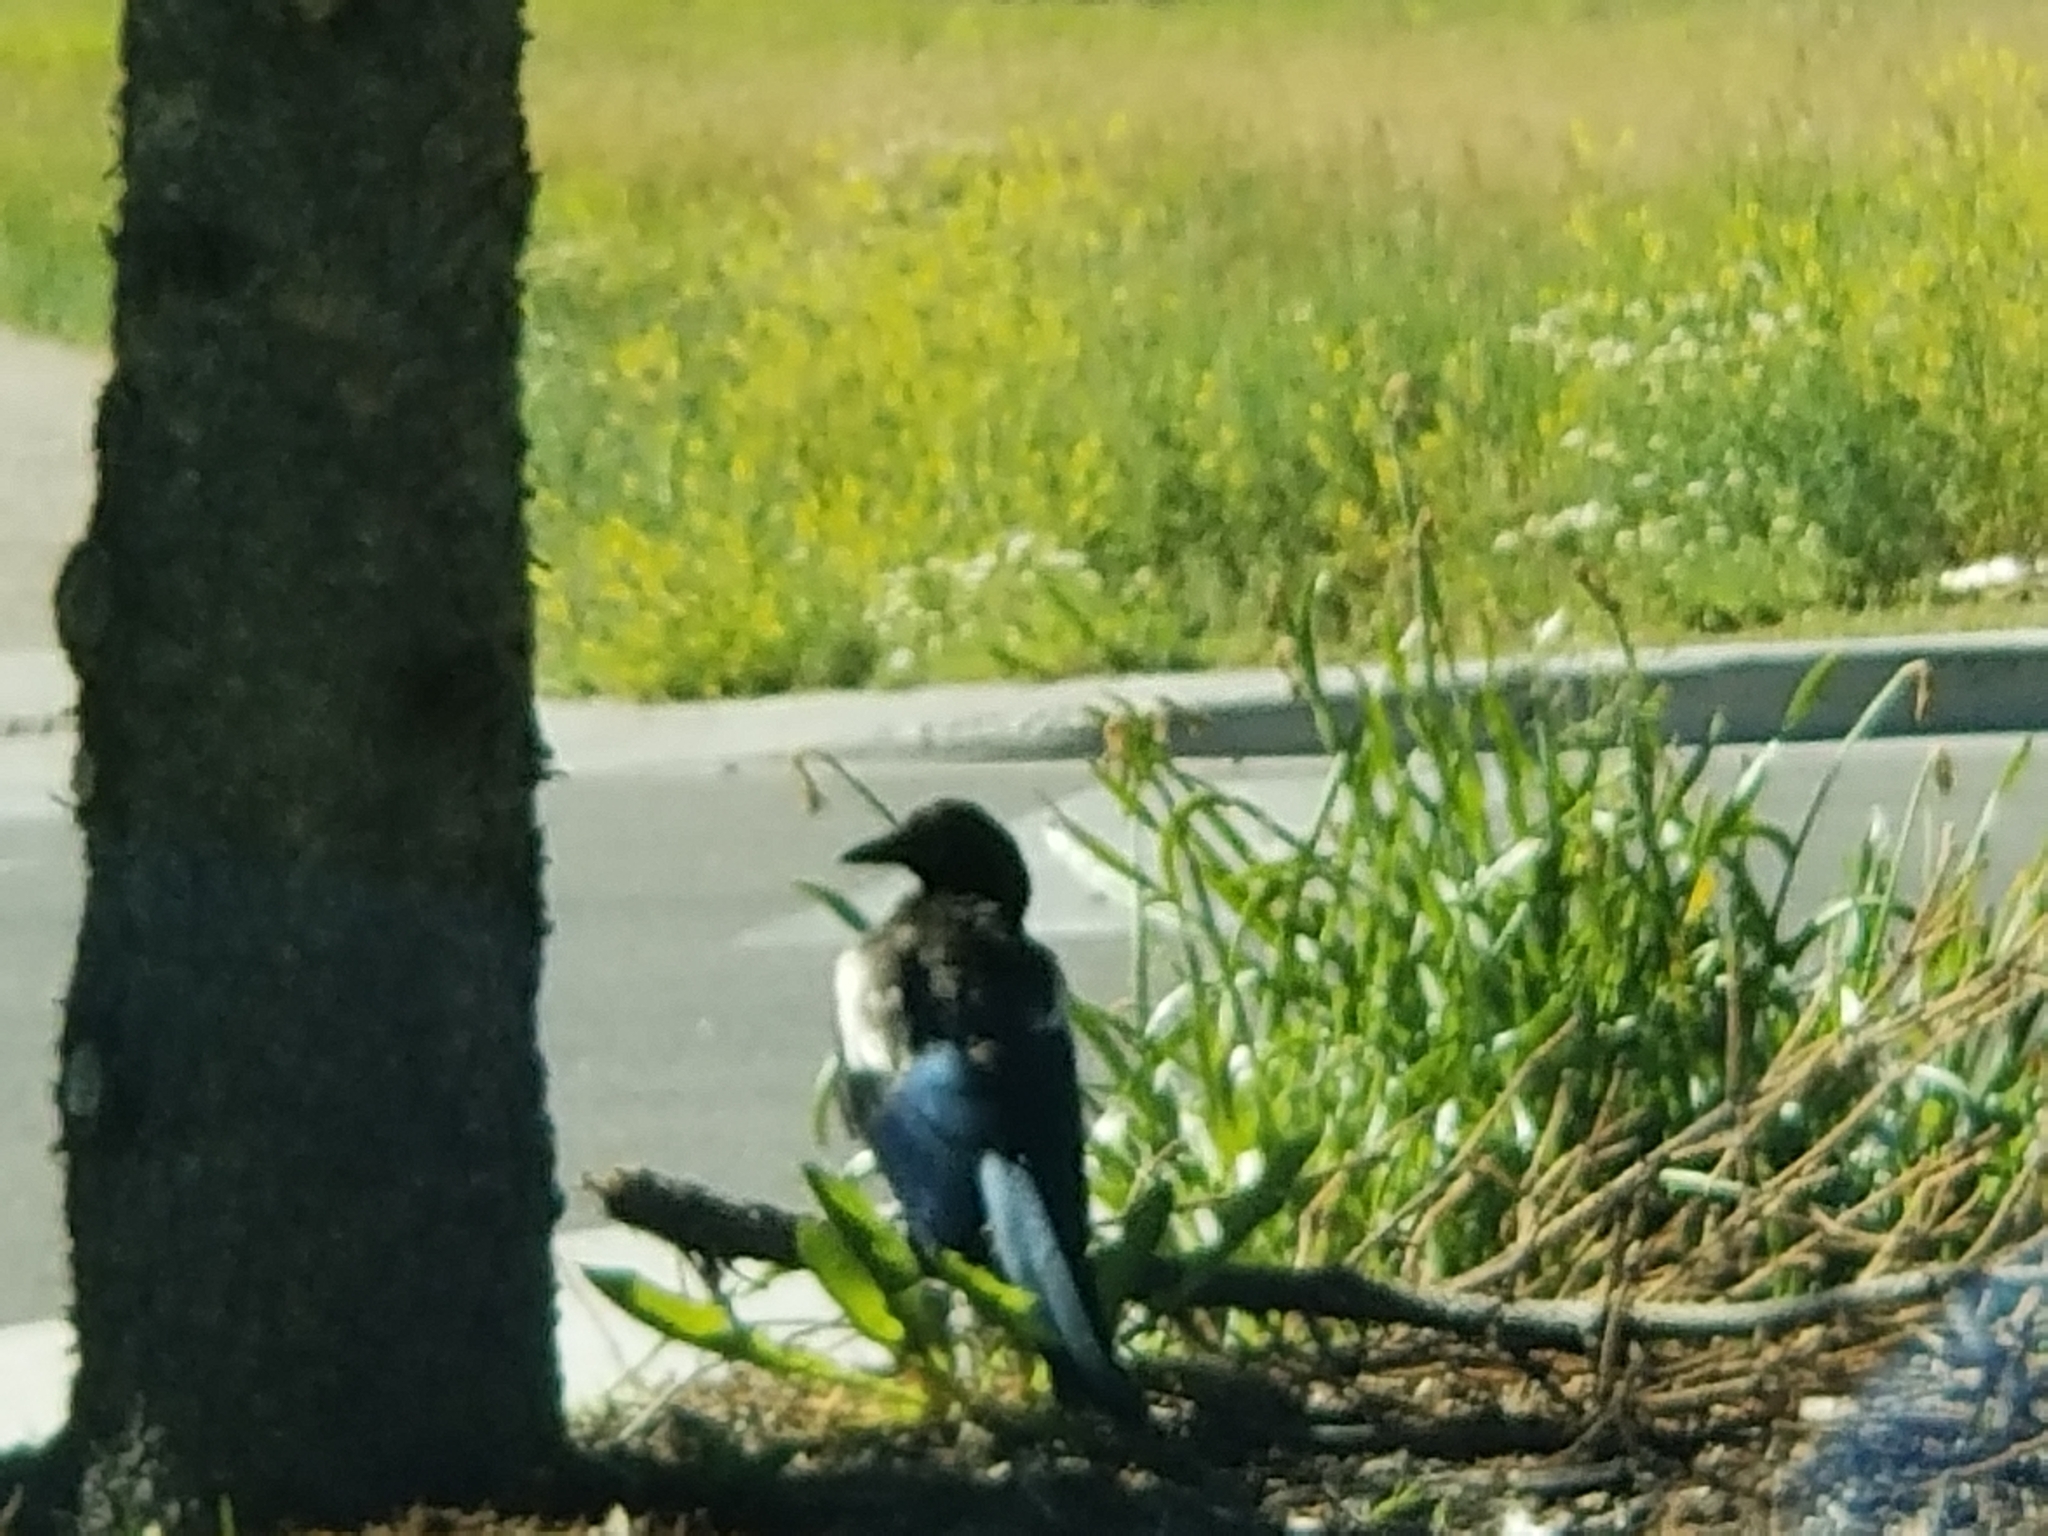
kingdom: Animalia
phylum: Chordata
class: Aves
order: Passeriformes
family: Corvidae
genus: Pica
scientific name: Pica hudsonia
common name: Black-billed magpie
